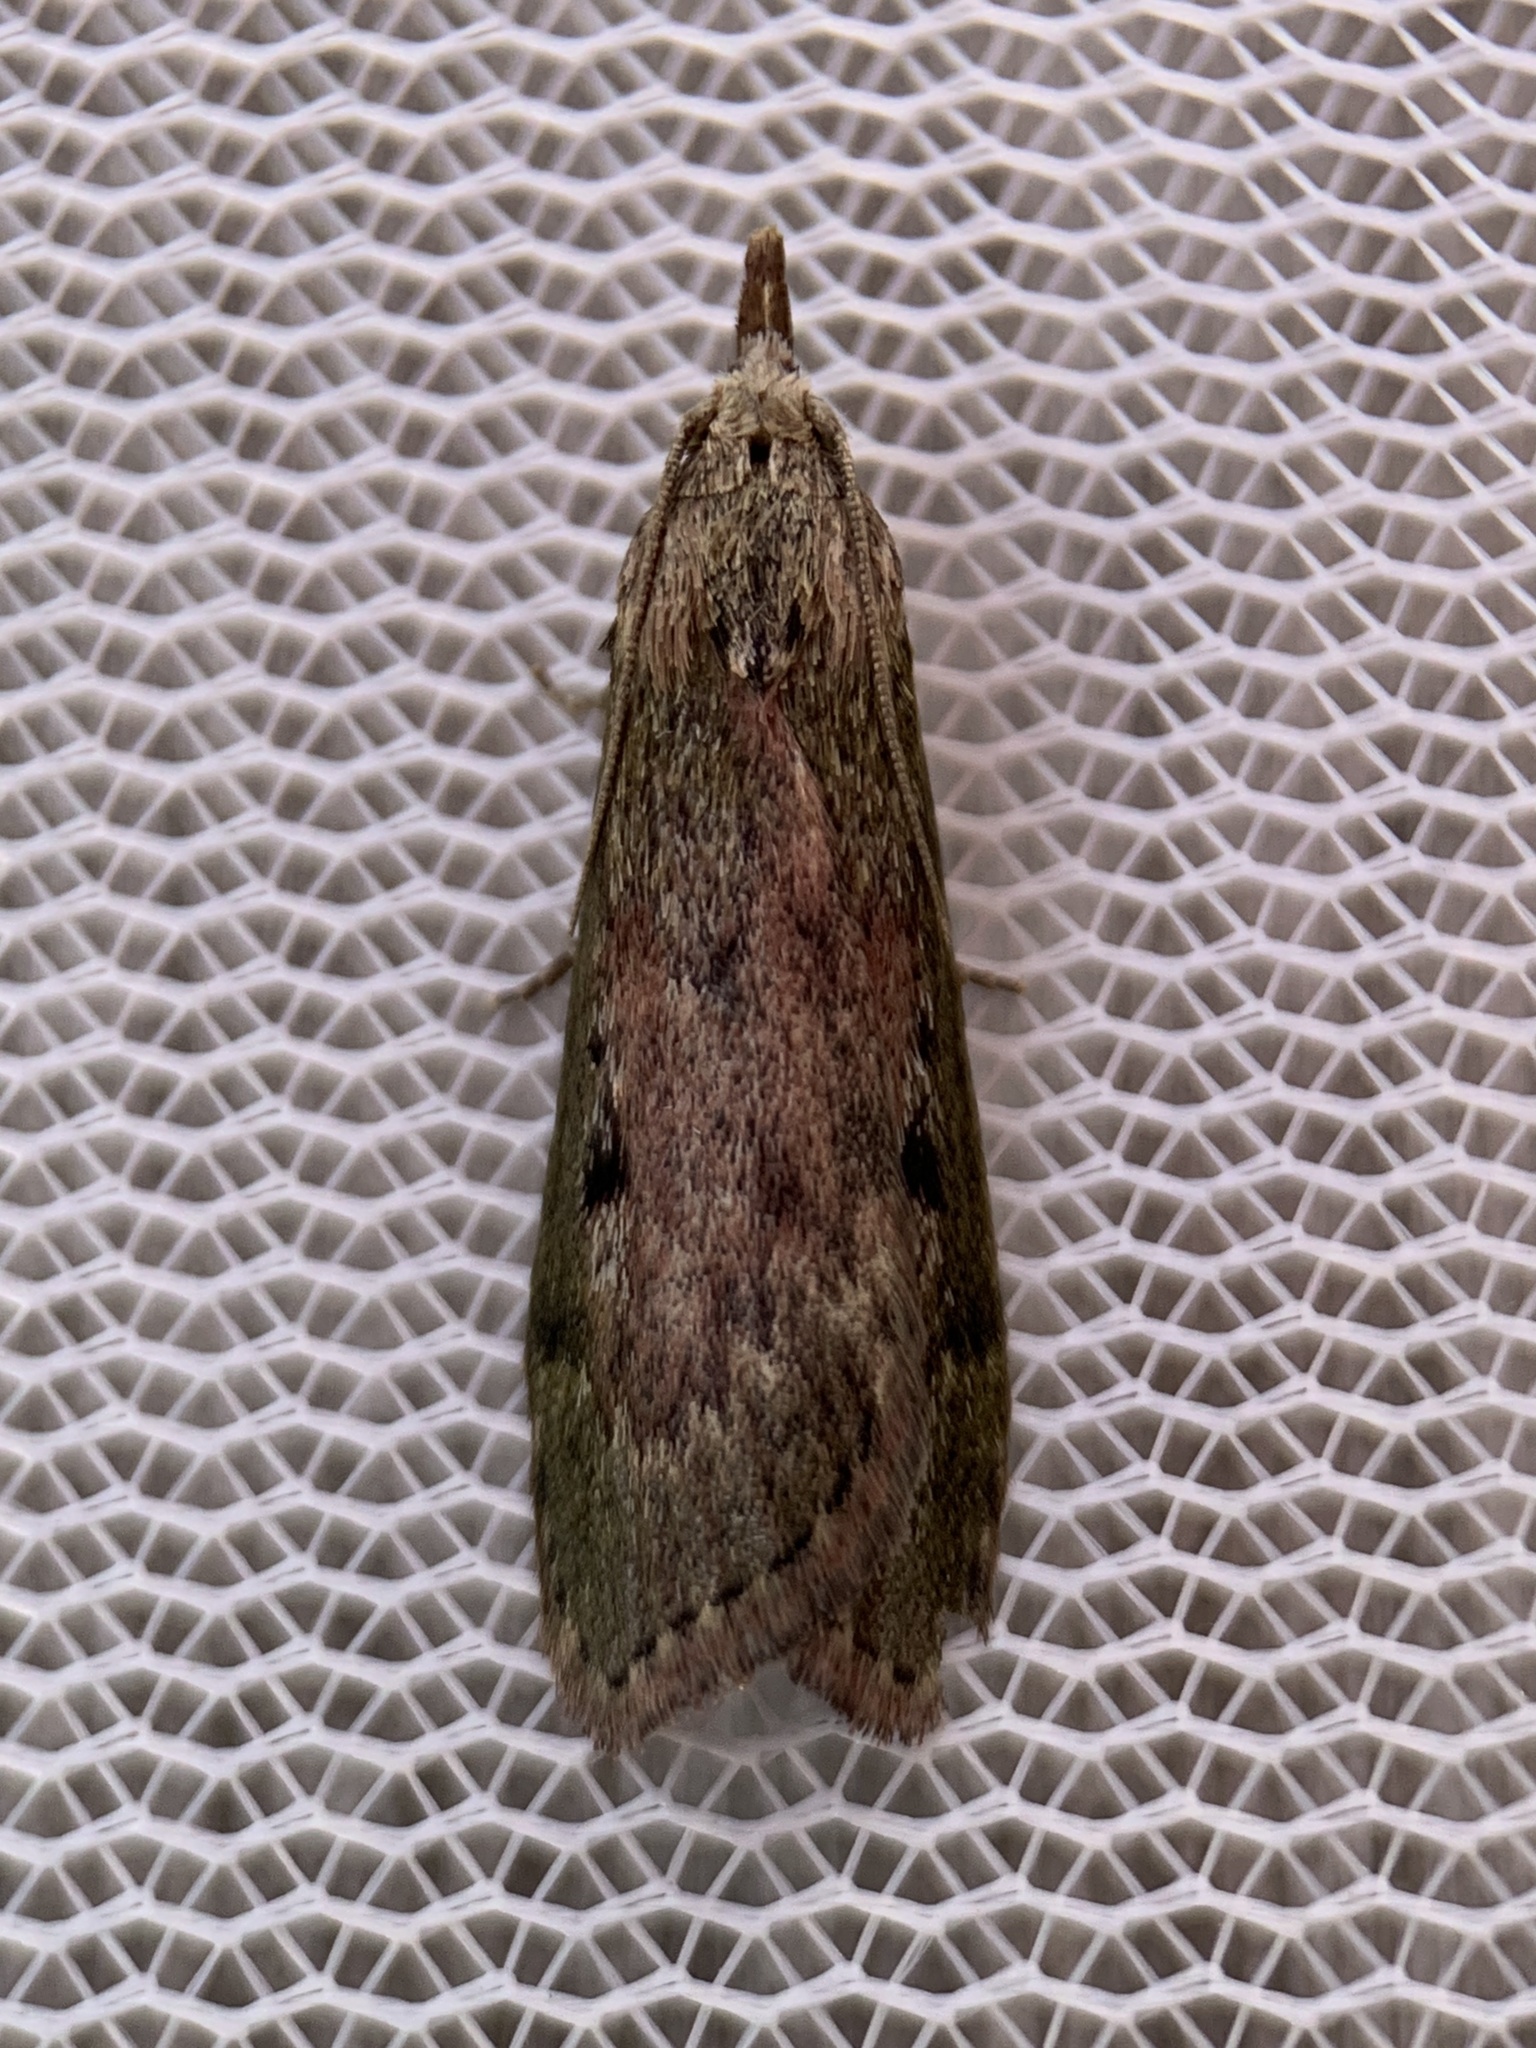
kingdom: Animalia
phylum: Arthropoda
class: Insecta
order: Lepidoptera
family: Pyralidae
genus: Aphomia
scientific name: Aphomia sociella
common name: Bee moth
